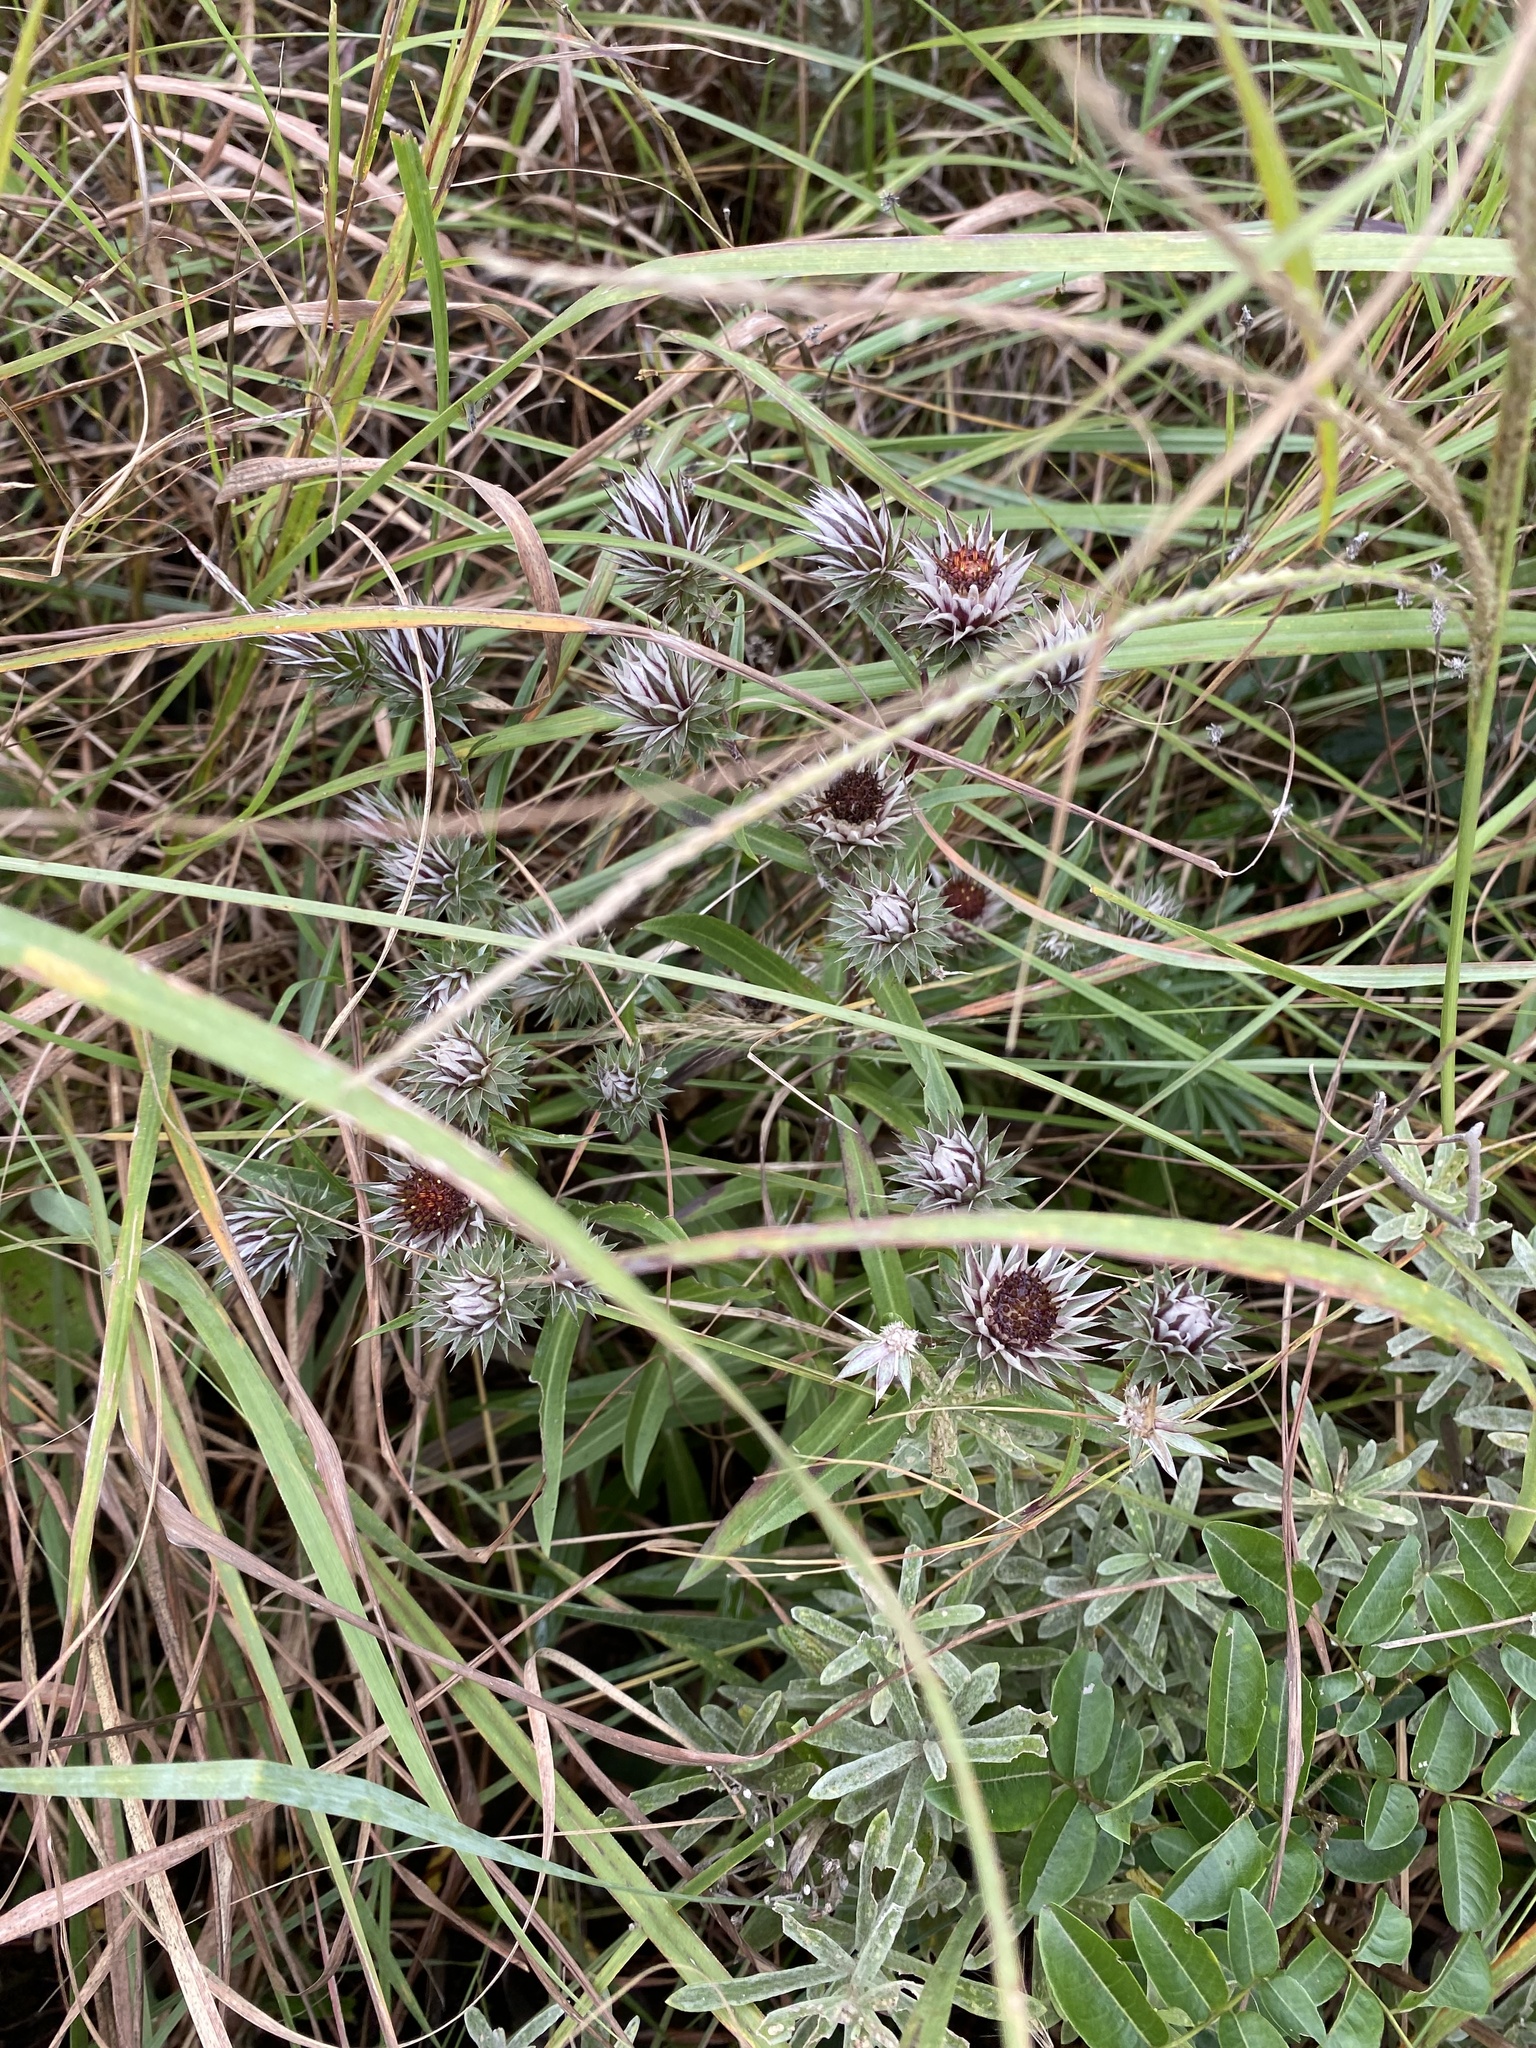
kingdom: Plantae
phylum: Tracheophyta
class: Magnoliopsida
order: Asterales
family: Asteraceae
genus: Macledium
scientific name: Macledium zeyheri
